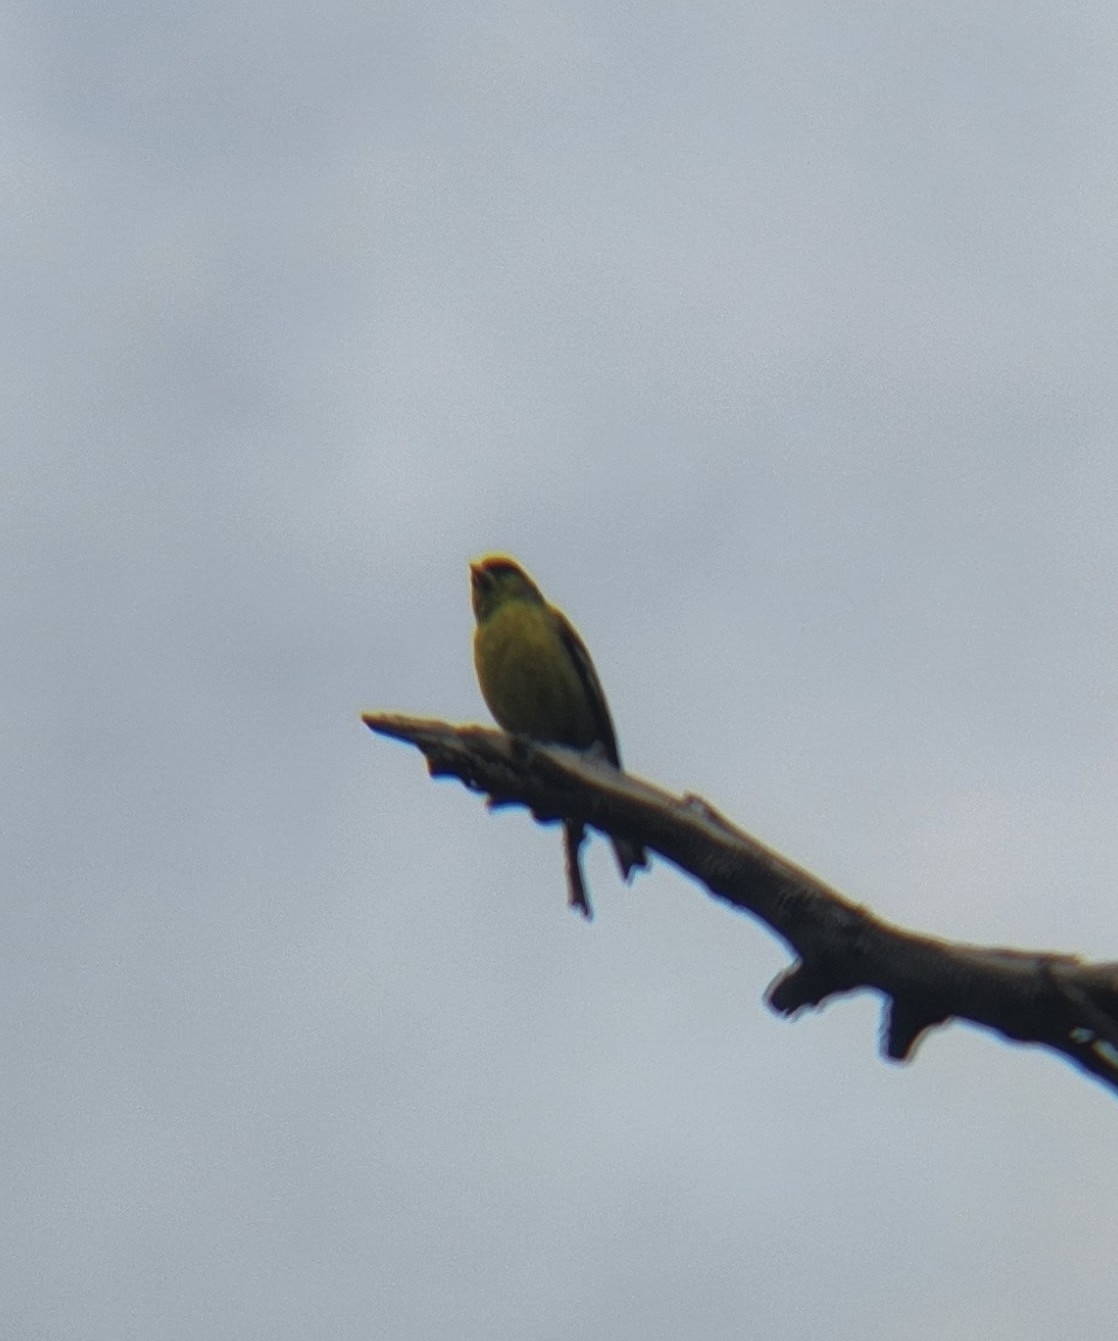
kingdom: Animalia
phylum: Chordata
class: Aves
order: Passeriformes
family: Fringillidae
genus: Spinus
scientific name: Spinus psaltria
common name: Lesser goldfinch
